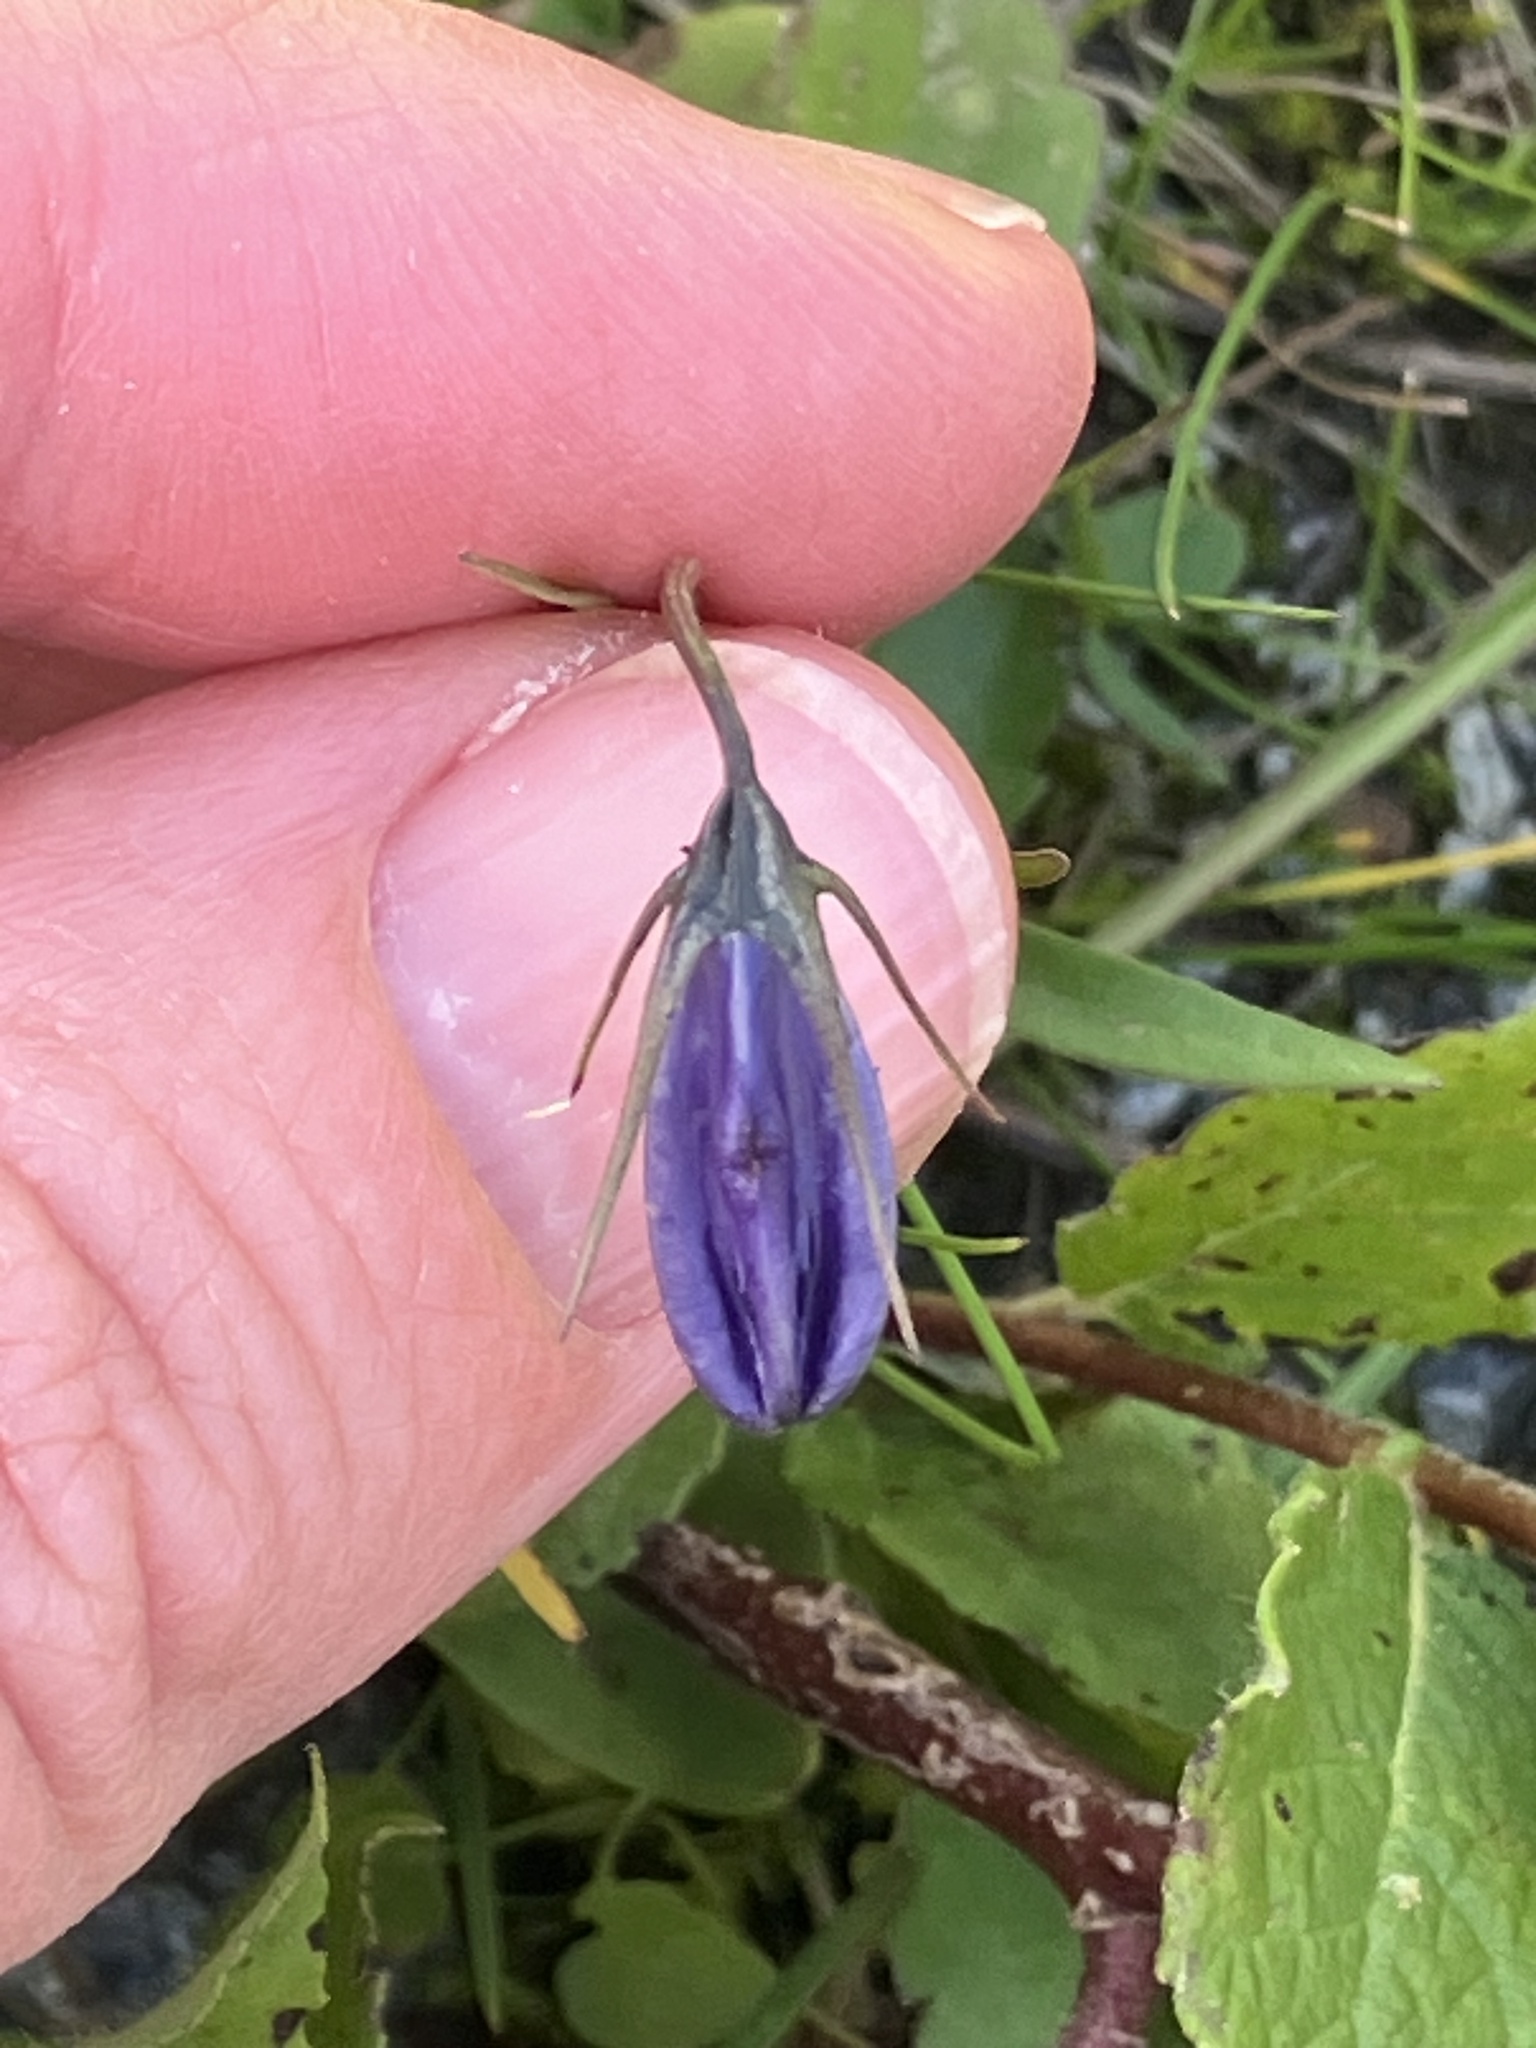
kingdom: Plantae
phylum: Tracheophyta
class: Magnoliopsida
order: Asterales
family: Campanulaceae
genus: Campanula
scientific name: Campanula scheuchzeri
